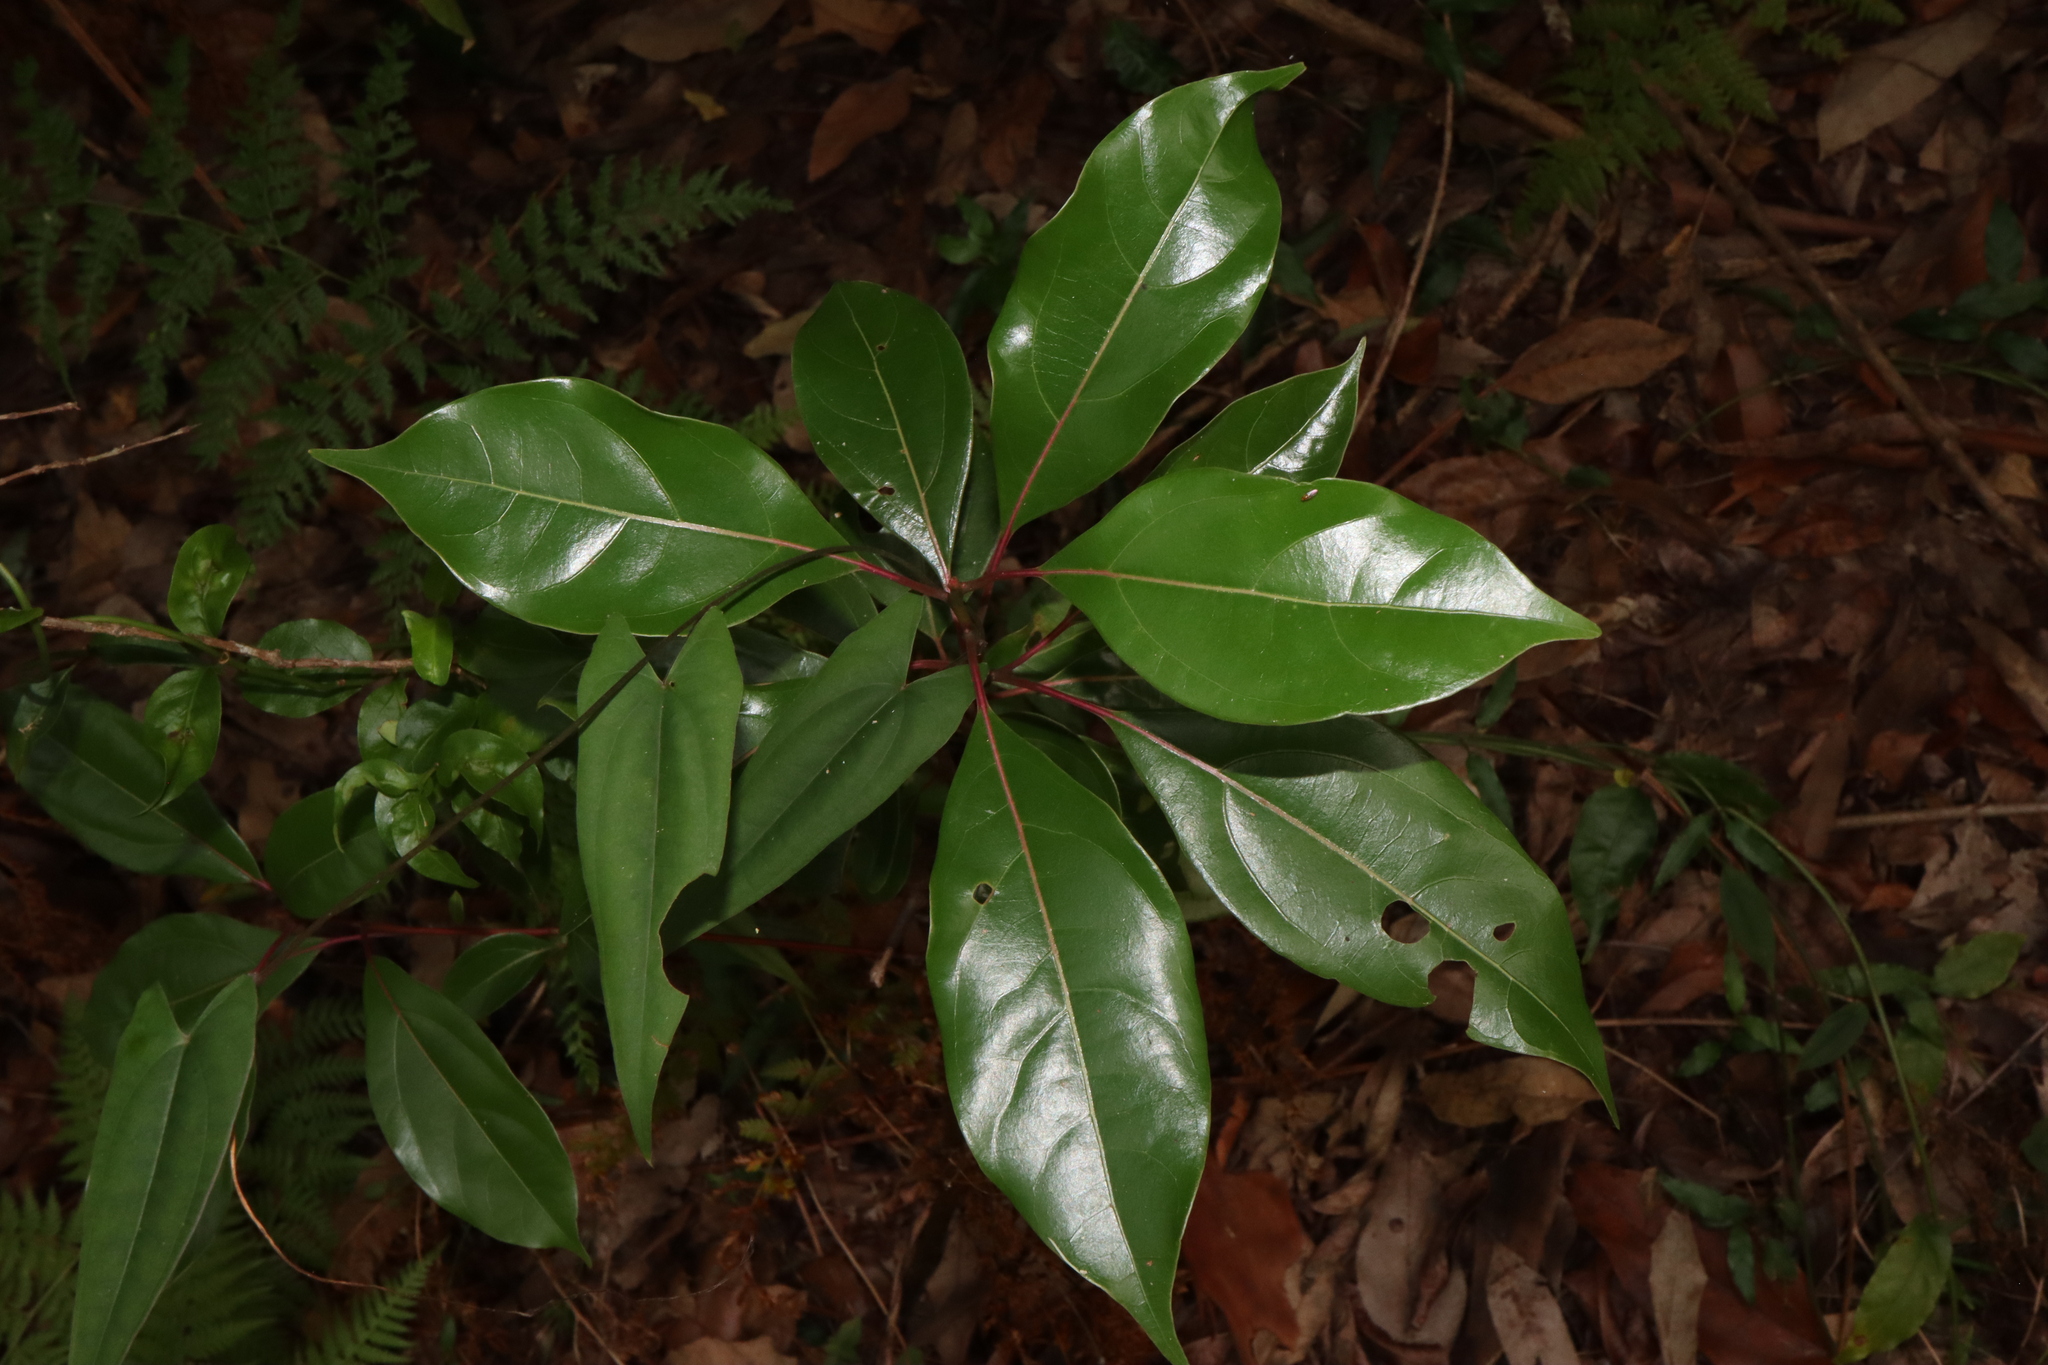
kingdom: Plantae
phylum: Tracheophyta
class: Magnoliopsida
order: Laurales
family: Lauraceae
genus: Cinnamomum
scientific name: Cinnamomum camphora
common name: Camphortree
